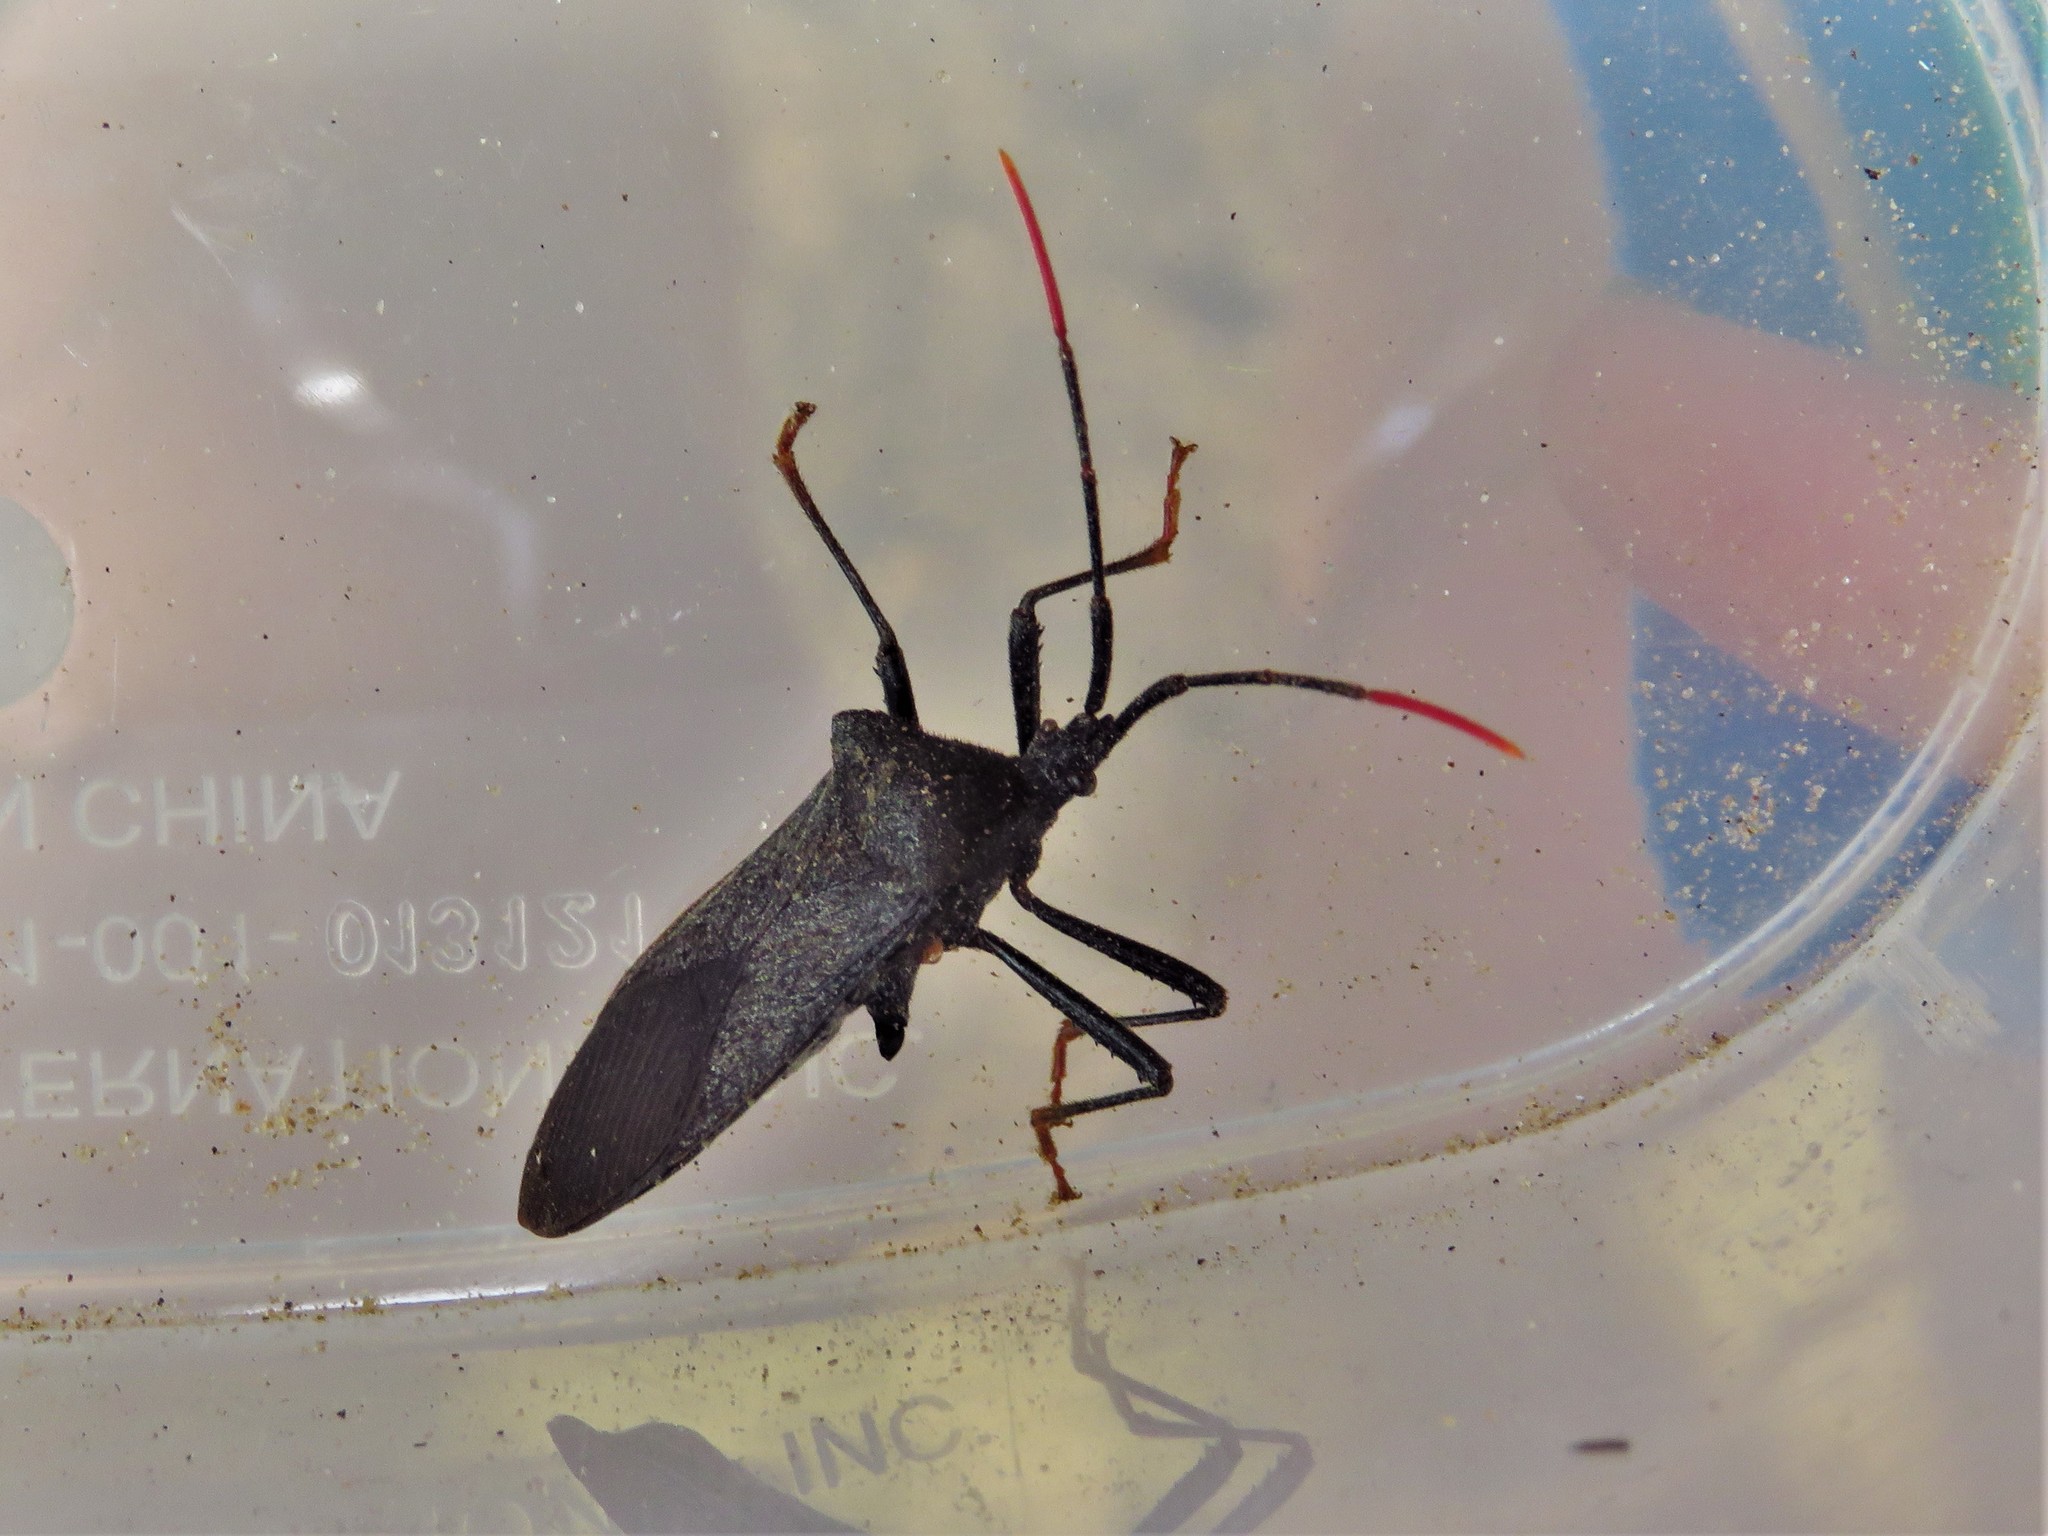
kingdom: Animalia
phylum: Arthropoda
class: Insecta
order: Hemiptera
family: Coreidae
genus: Acanthocephala
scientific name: Acanthocephala terminalis
